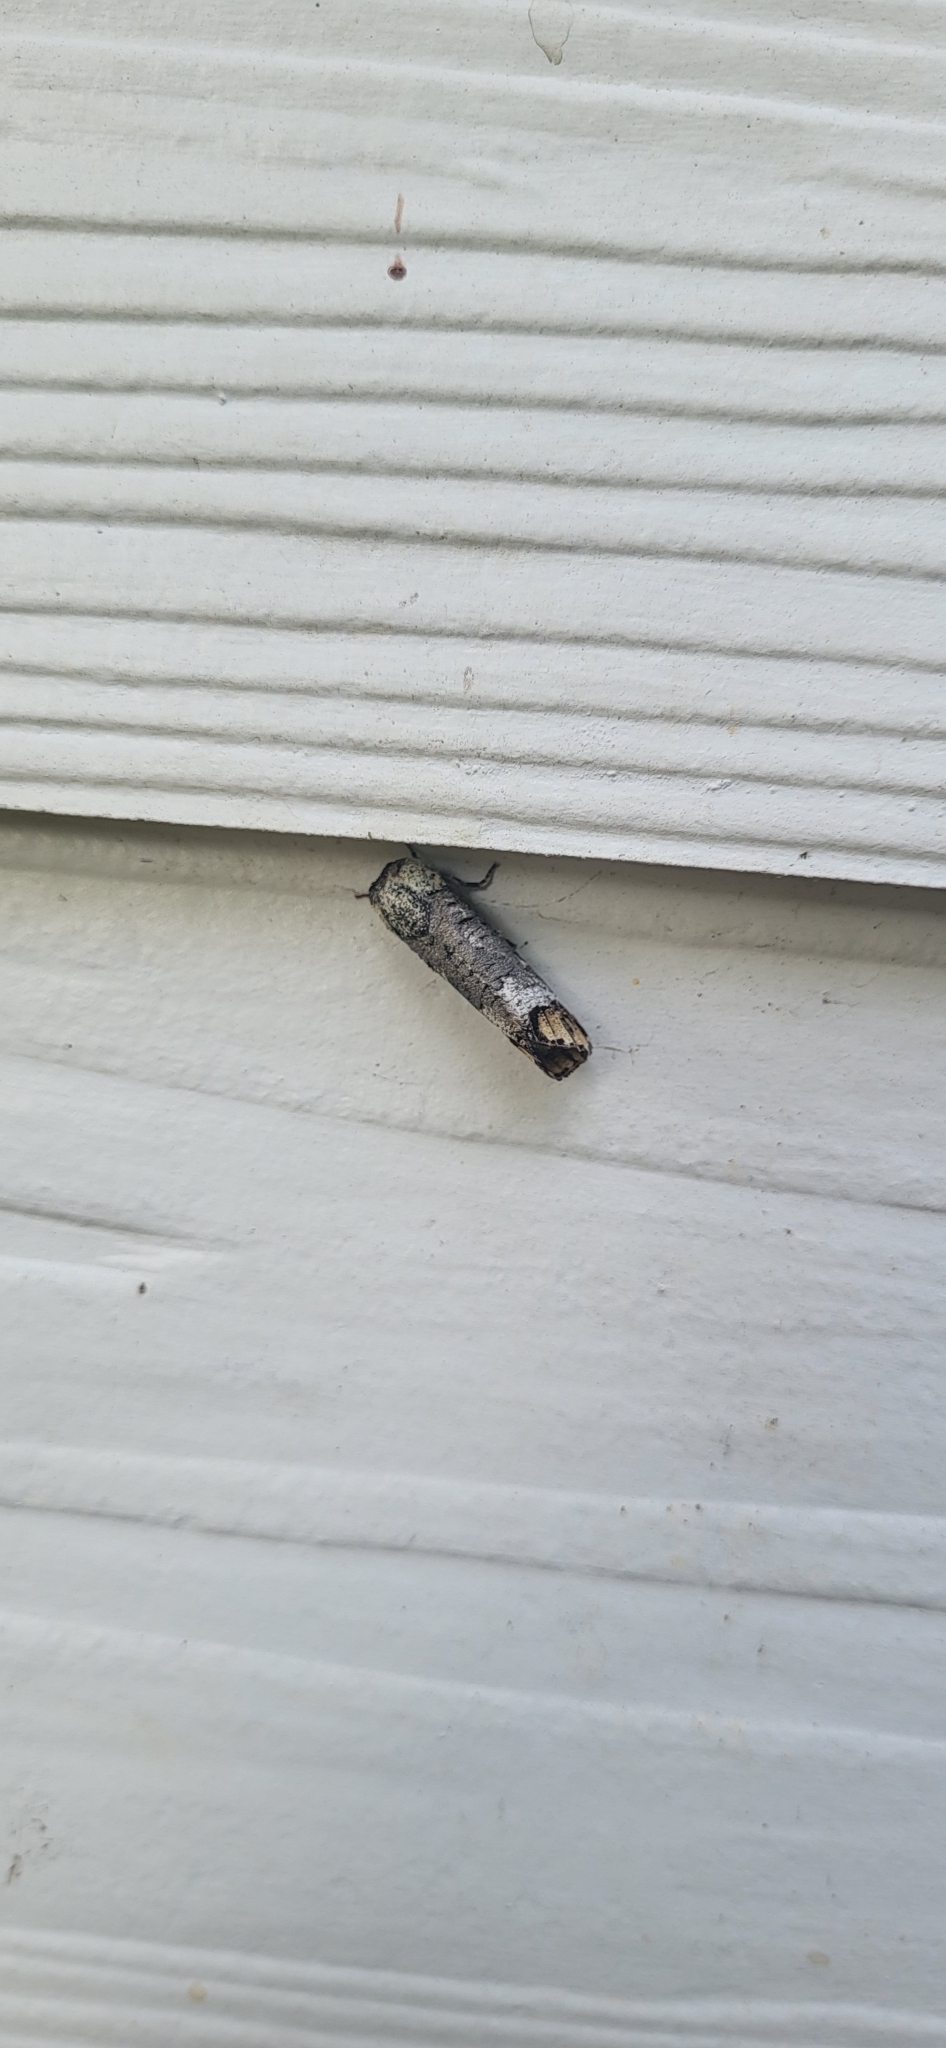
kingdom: Animalia
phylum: Arthropoda
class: Insecta
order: Lepidoptera
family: Cossidae
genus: Cossula
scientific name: Cossula magnifica
